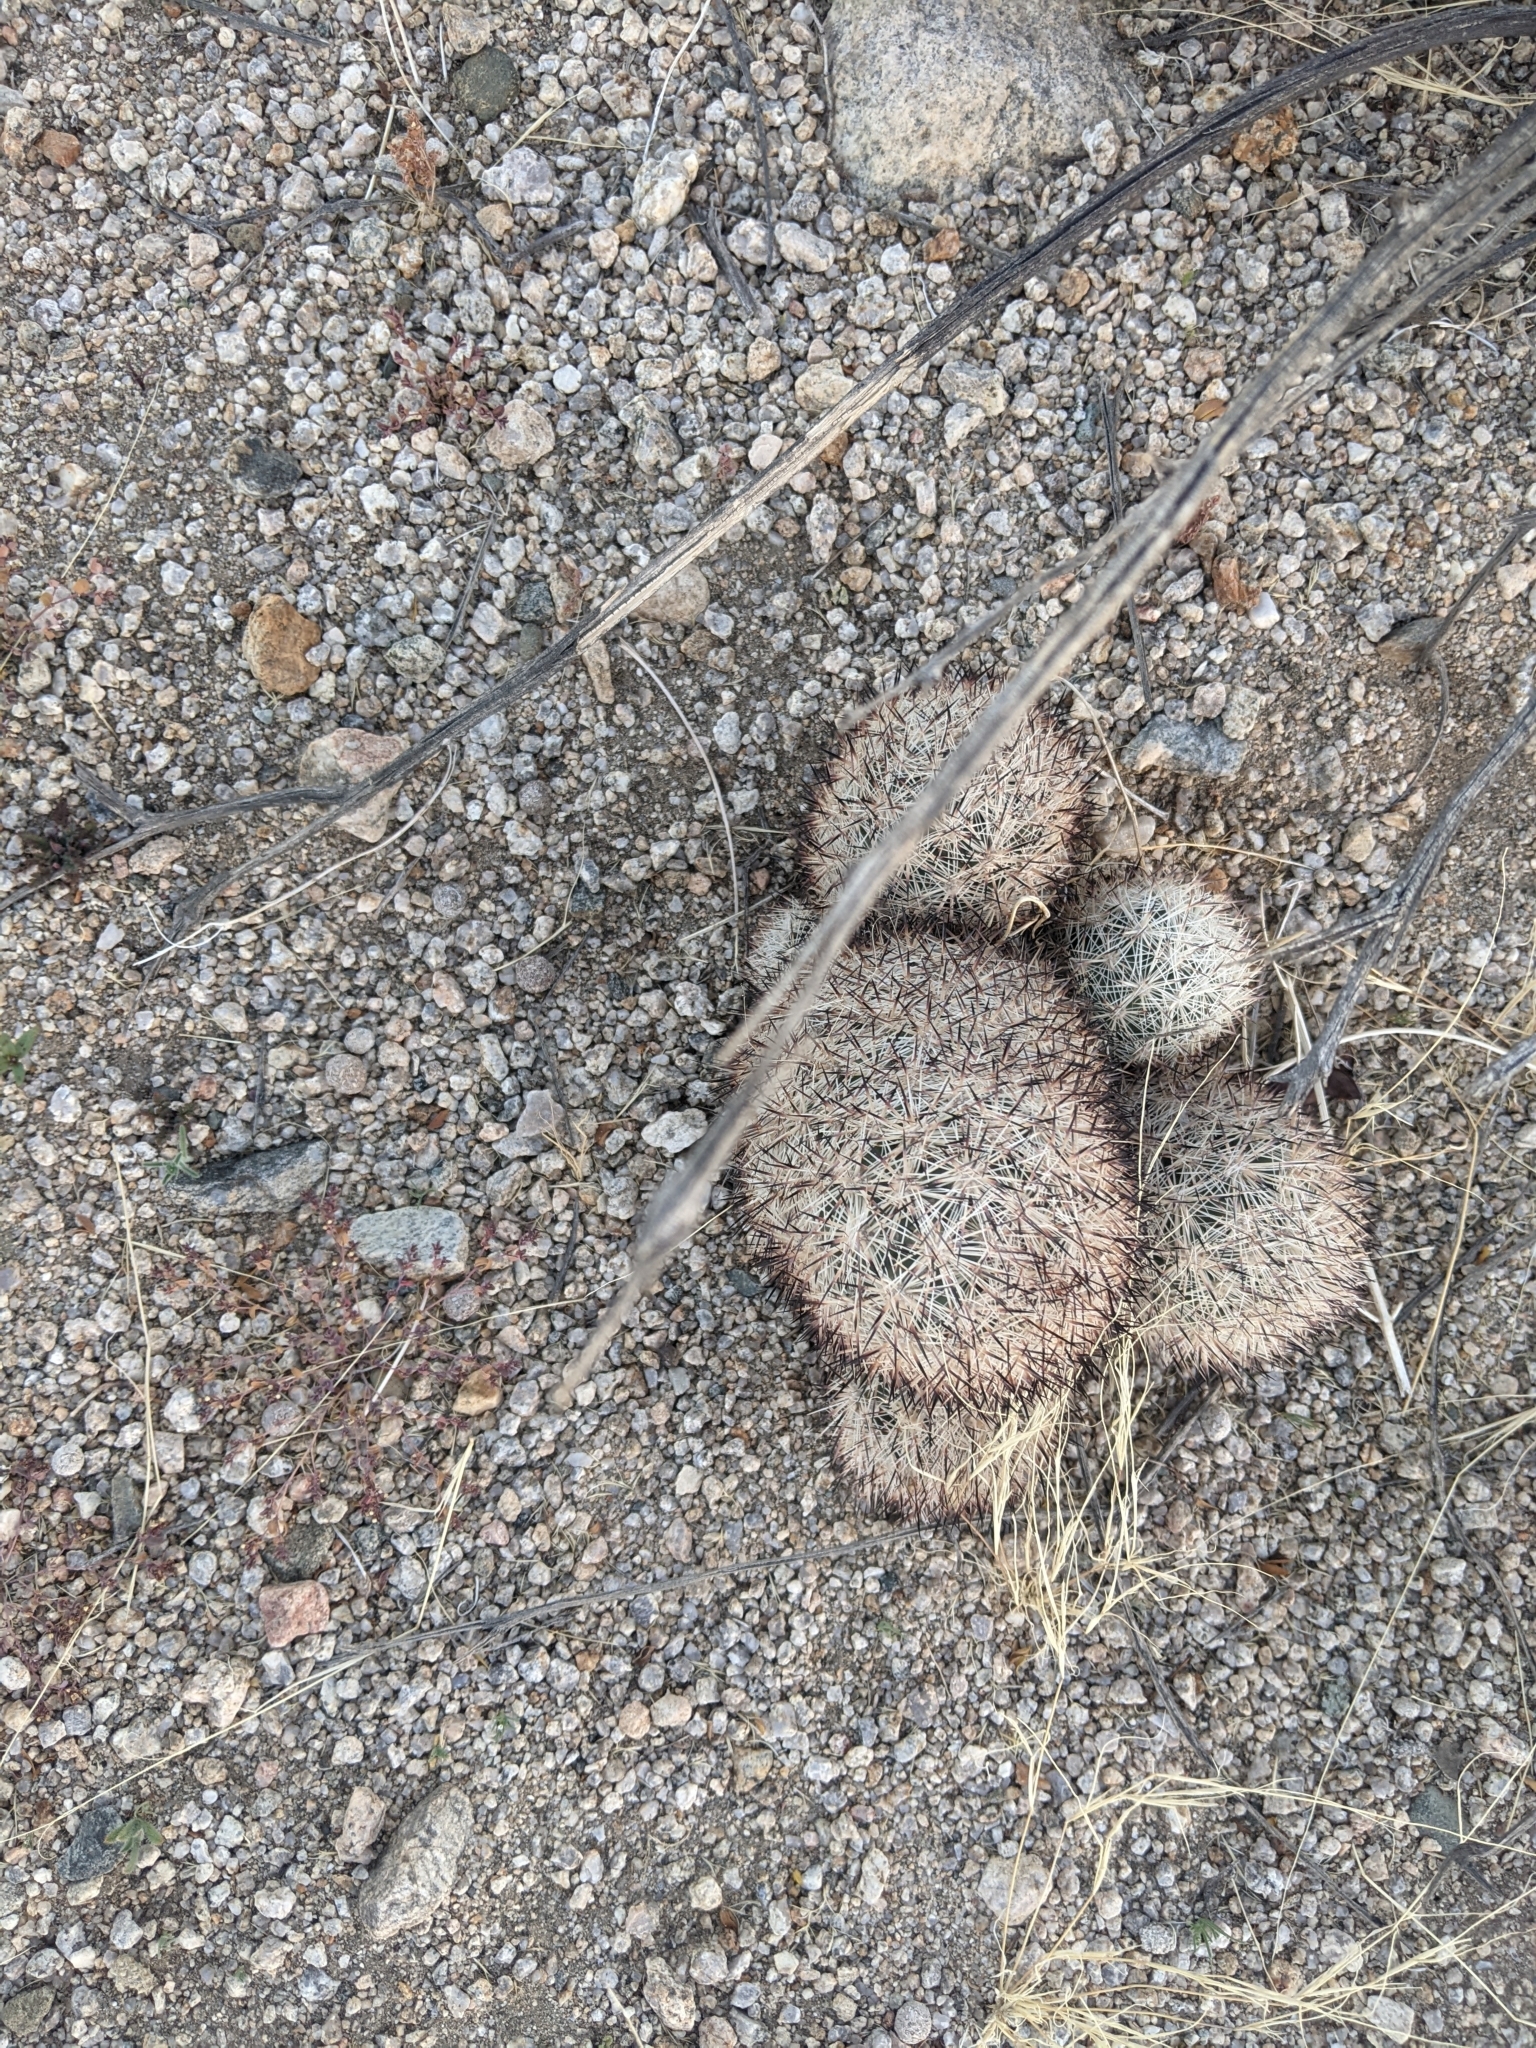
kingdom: Plantae
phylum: Tracheophyta
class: Magnoliopsida
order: Caryophyllales
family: Cactaceae
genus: Pelecyphora
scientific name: Pelecyphora alversonii
